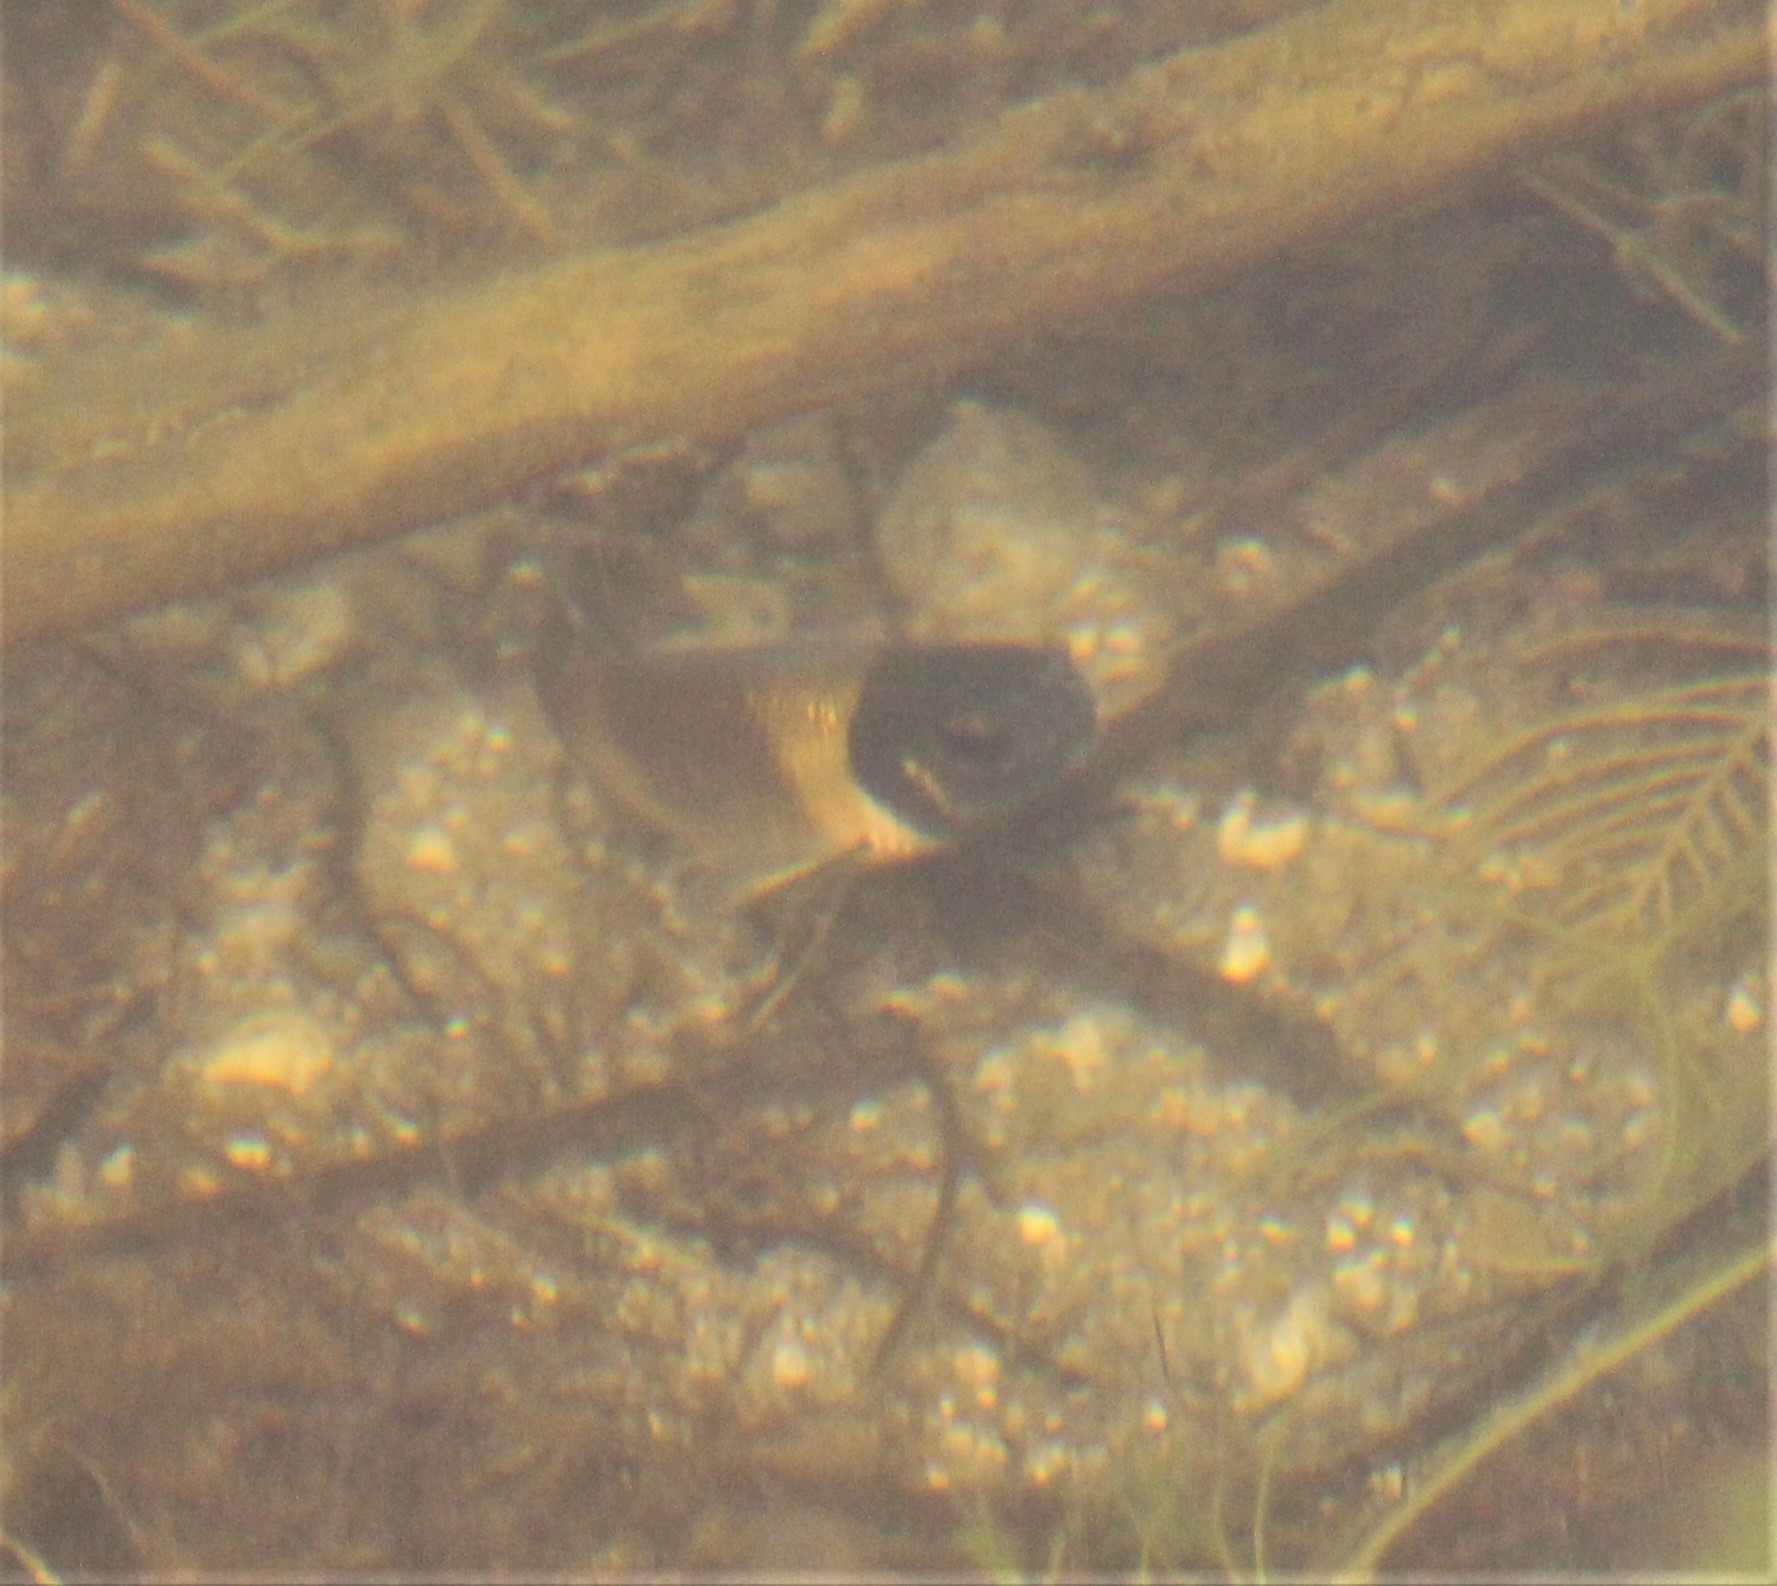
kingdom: Animalia
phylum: Chordata
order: Cypriniformes
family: Cyprinidae
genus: Pimephales
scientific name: Pimephales promelas
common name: Fathead minnow
